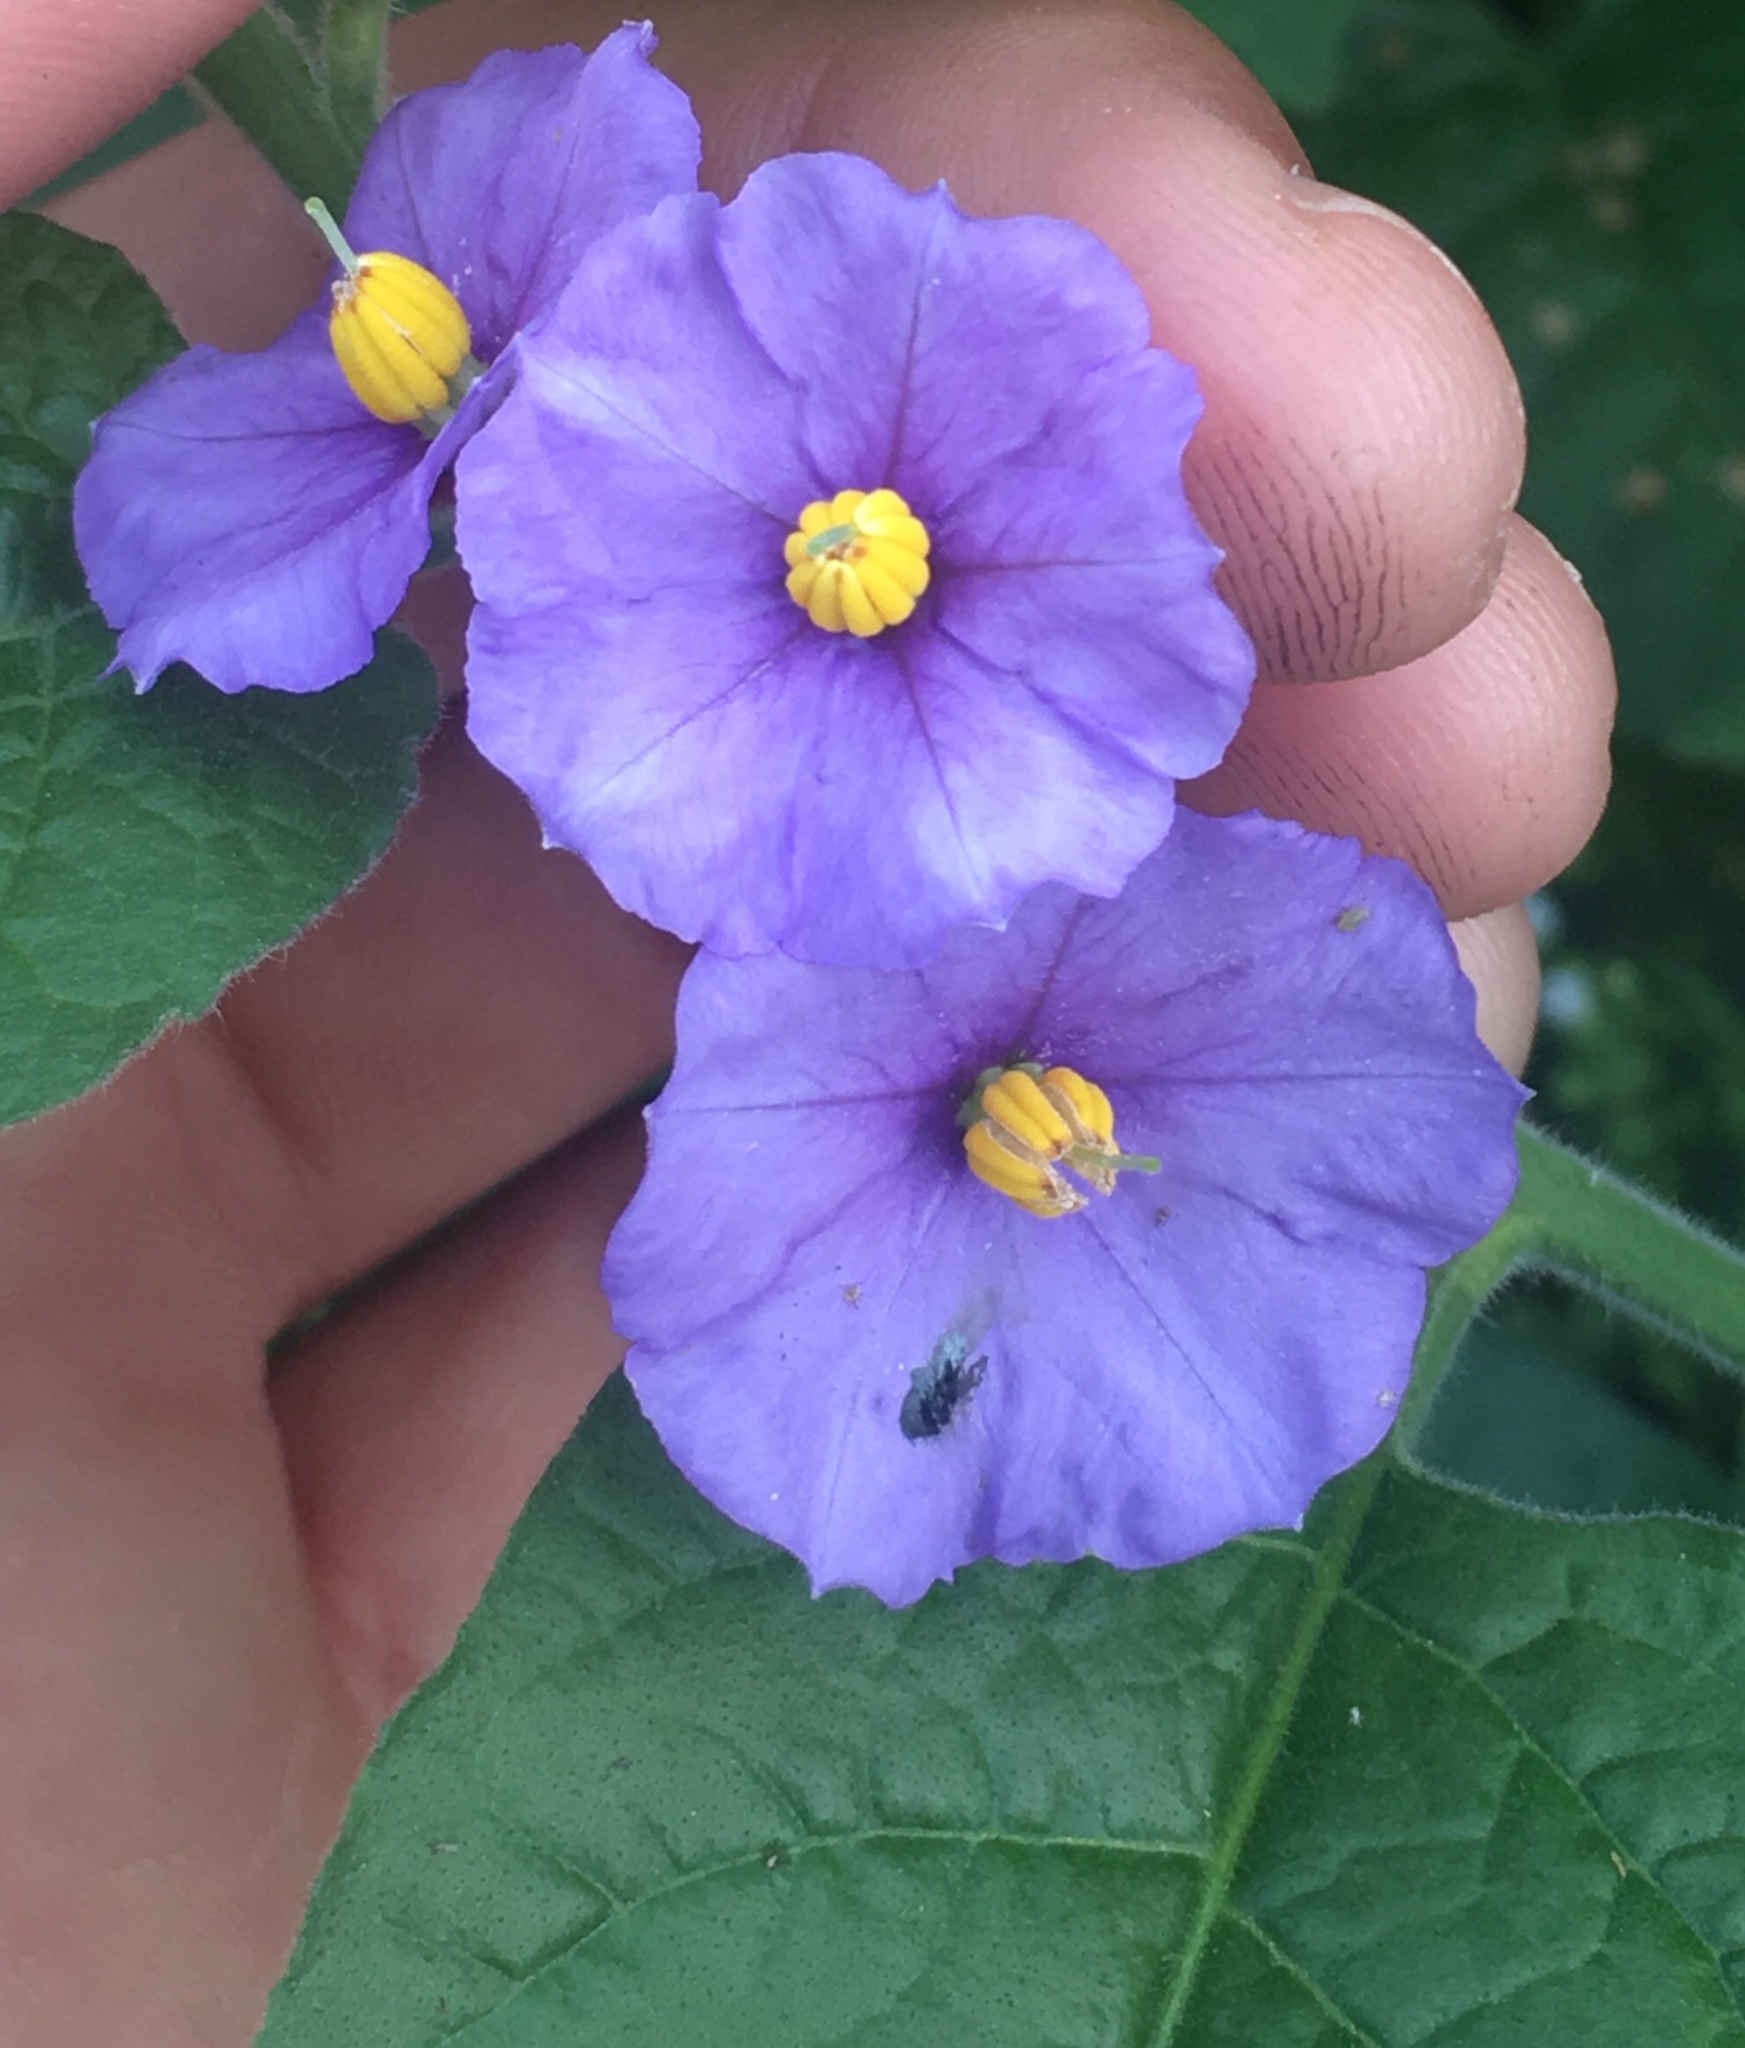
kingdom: Plantae
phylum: Tracheophyta
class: Magnoliopsida
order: Solanales
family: Solanaceae
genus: Solanum
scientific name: Solanum umbelliferum
